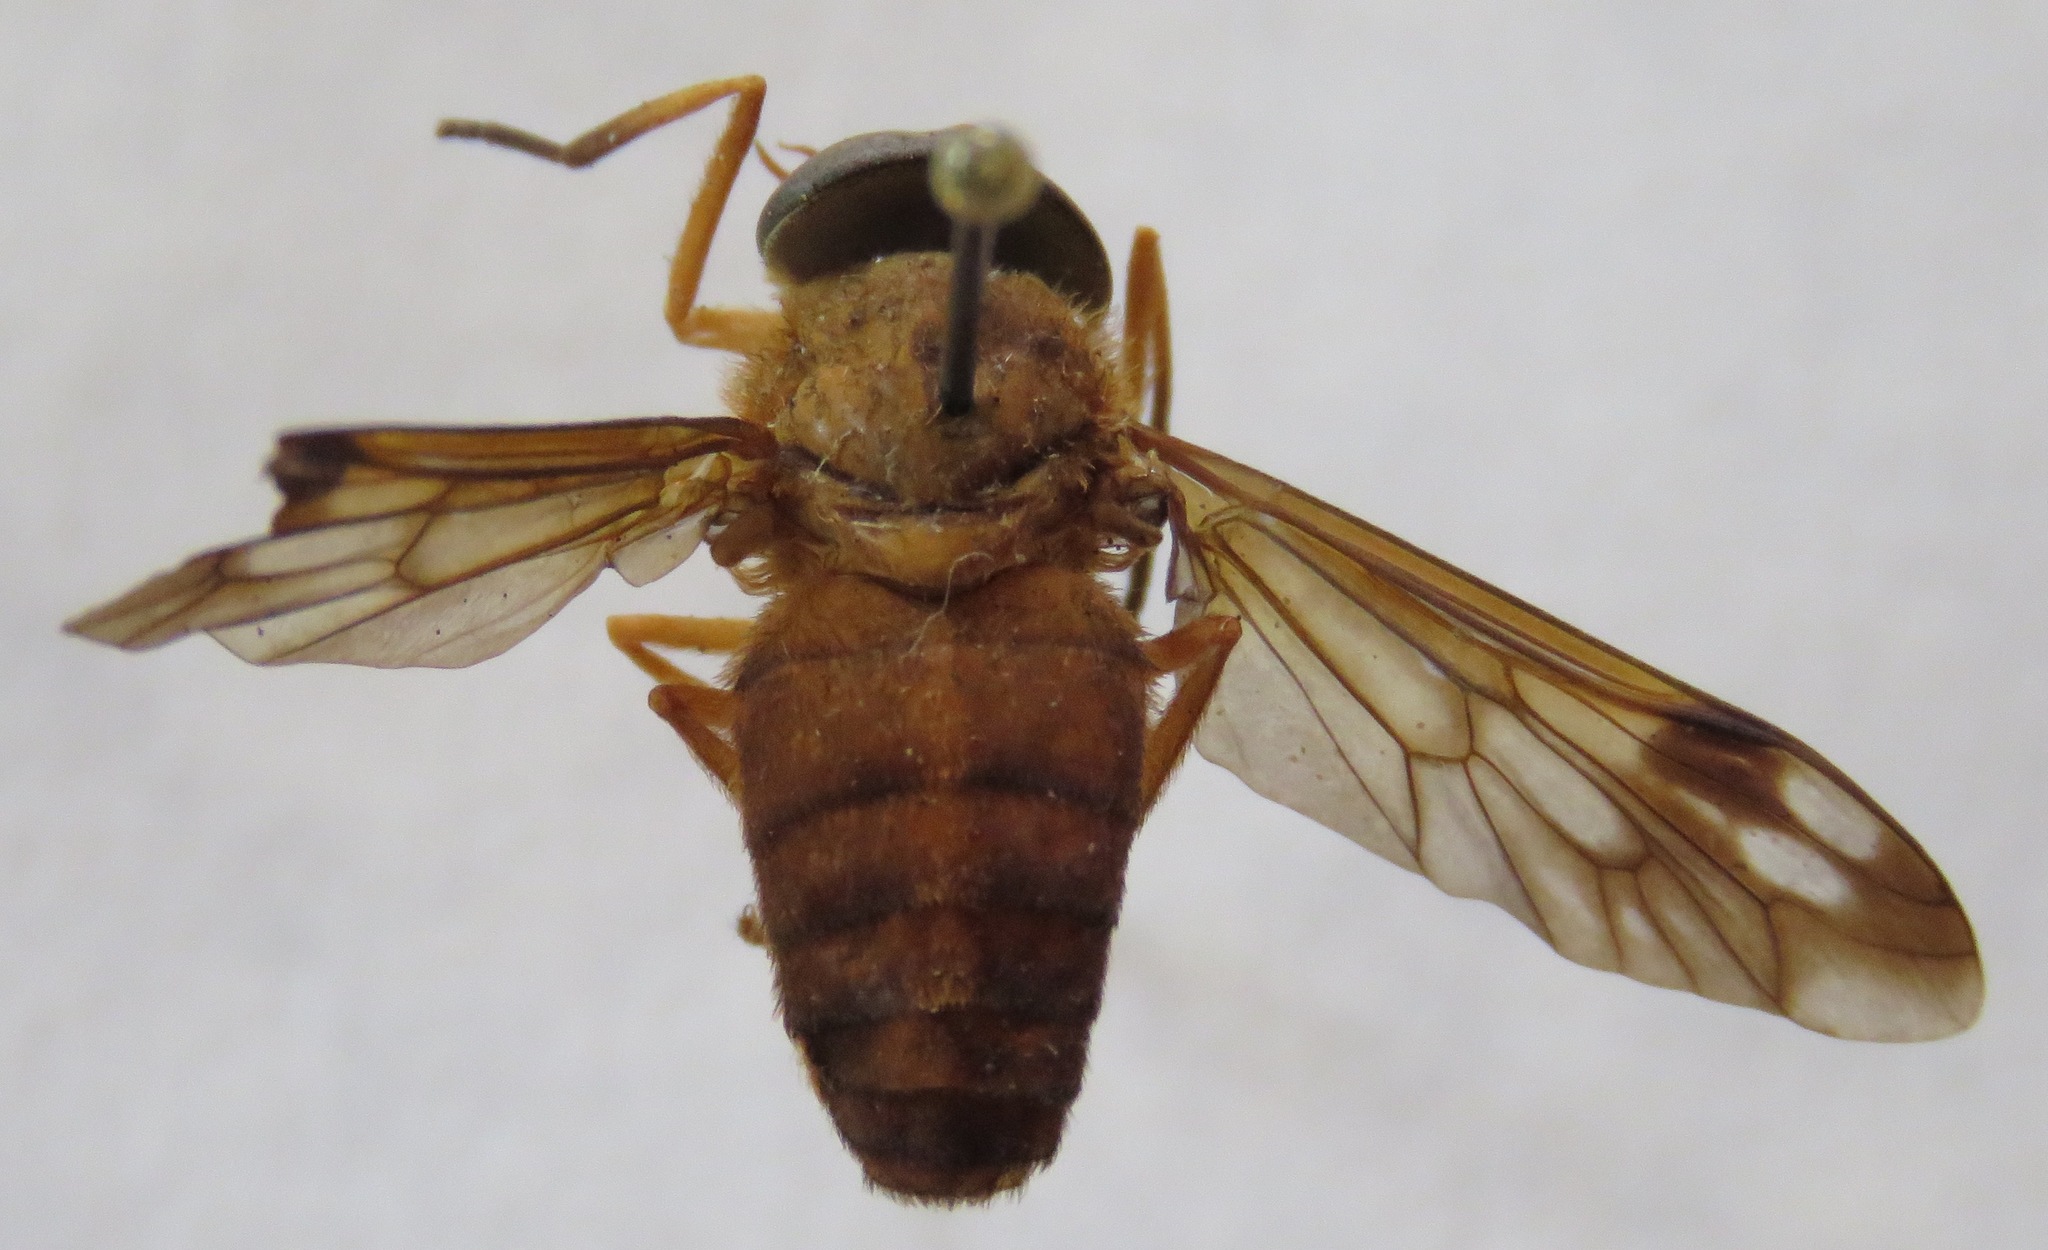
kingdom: Animalia
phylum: Arthropoda
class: Insecta
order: Diptera
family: Tabanidae
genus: Catachlorops
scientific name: Catachlorops fulmineus
